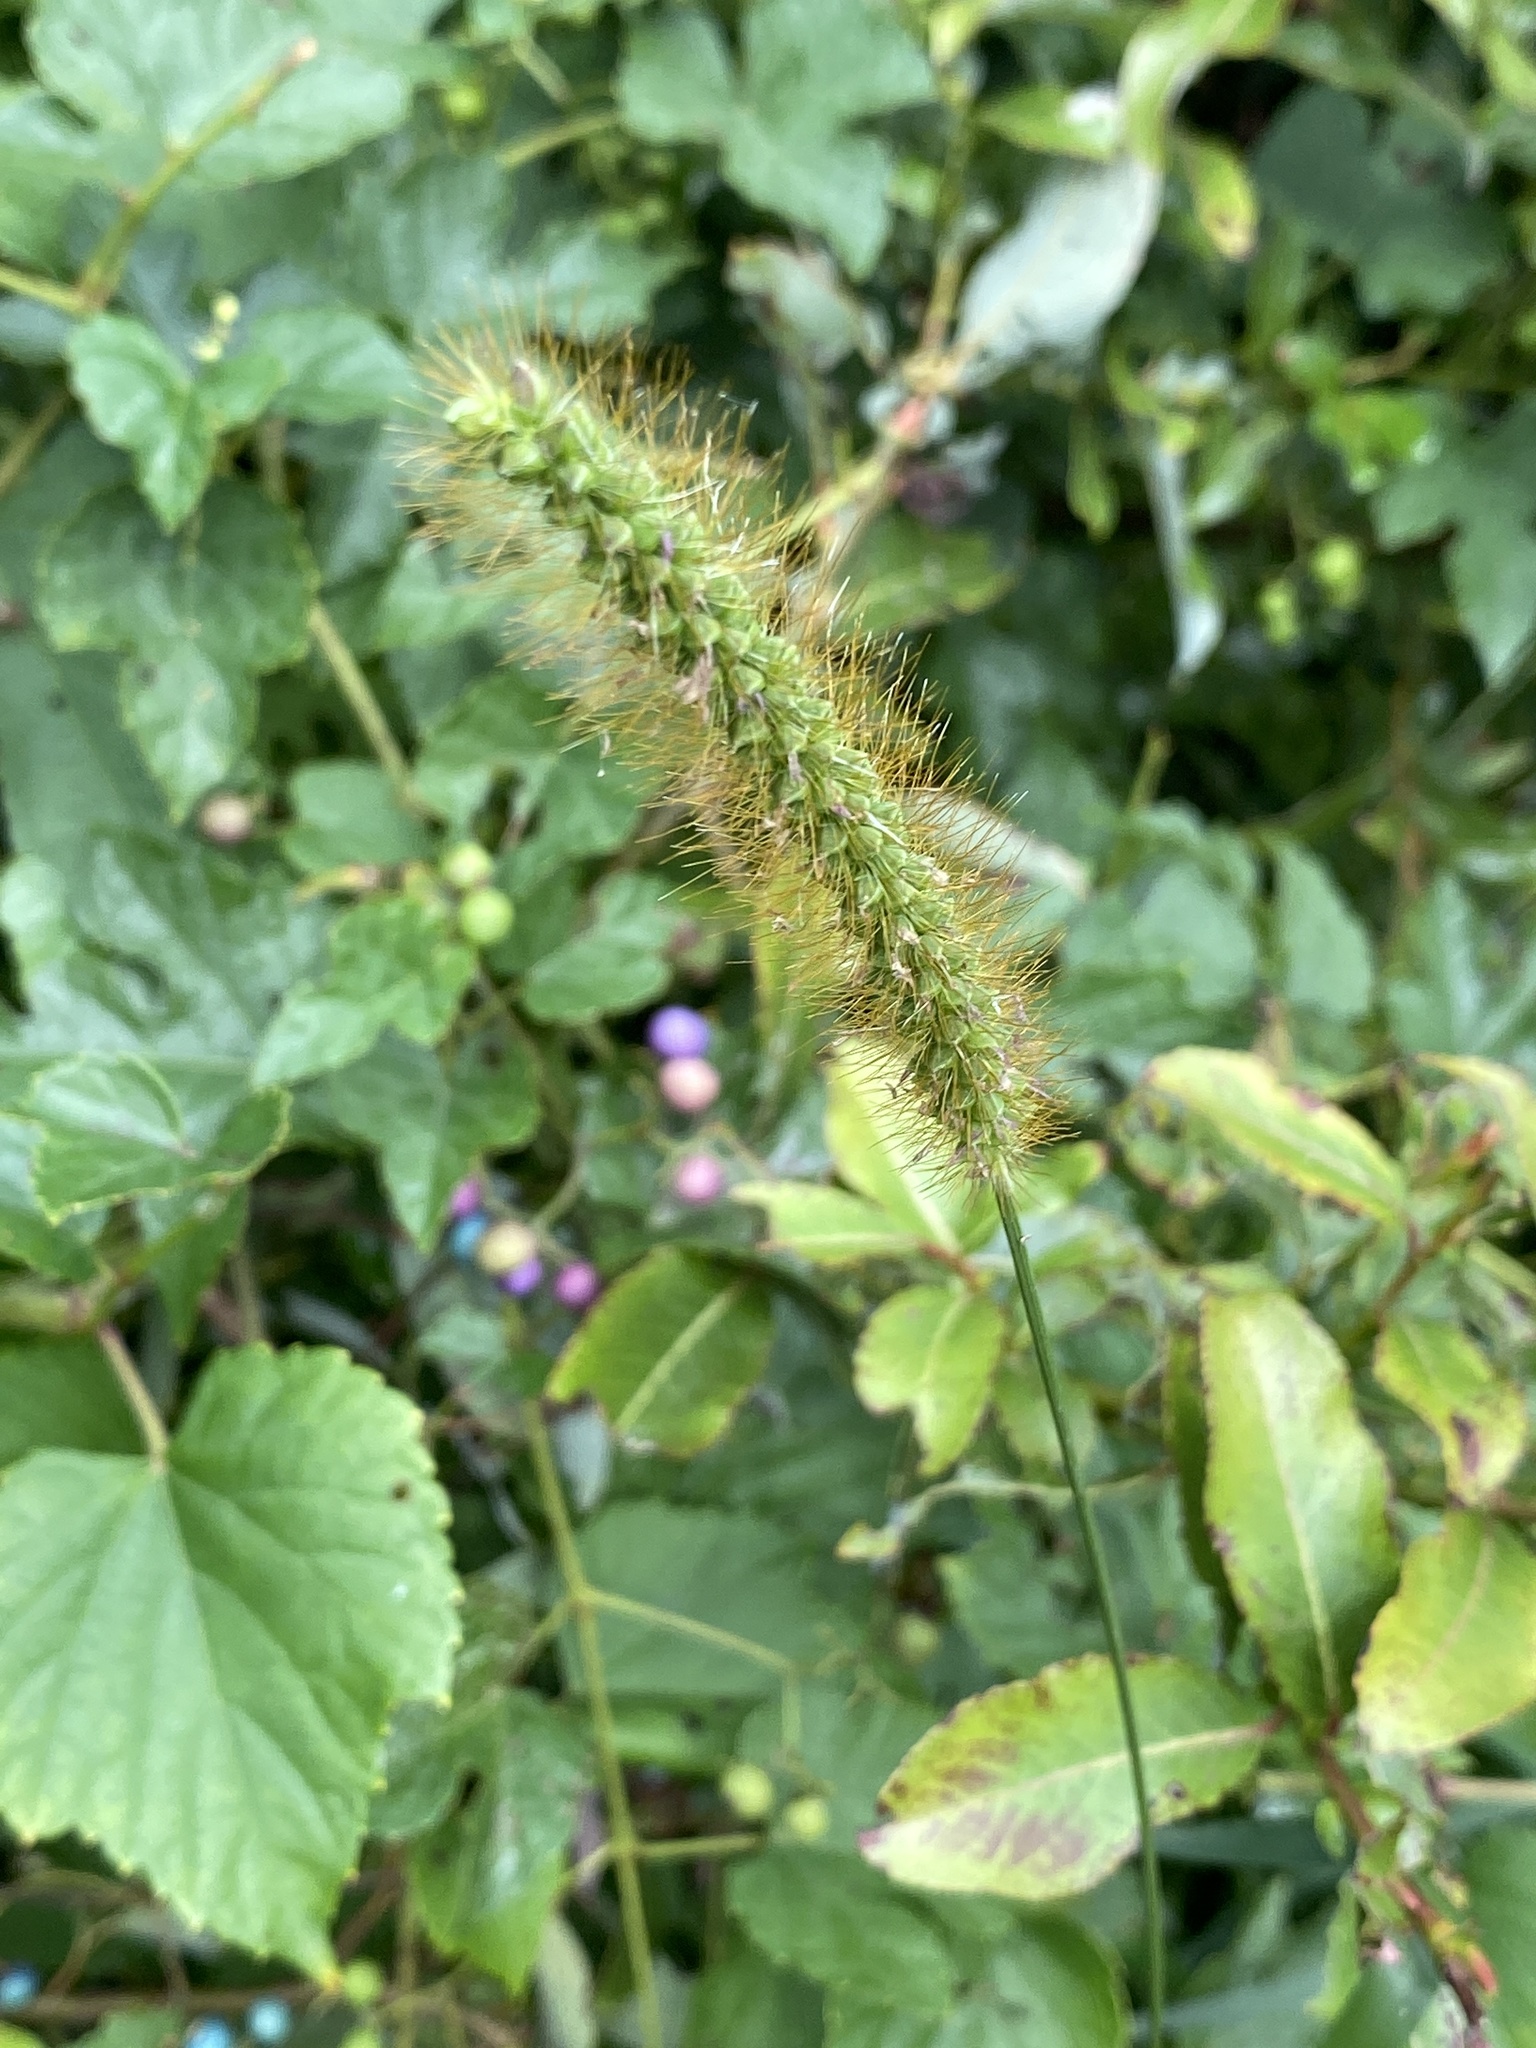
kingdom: Plantae
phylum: Tracheophyta
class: Liliopsida
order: Poales
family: Poaceae
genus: Setaria
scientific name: Setaria pumila
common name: Yellow bristle-grass
